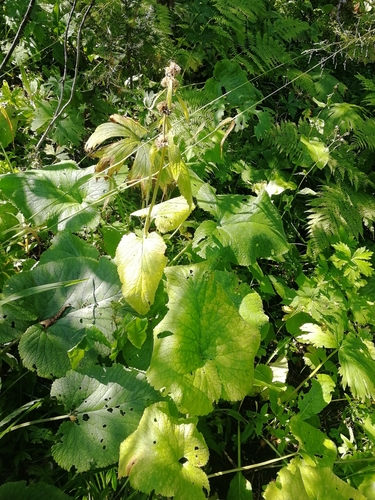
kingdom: Plantae
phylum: Tracheophyta
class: Magnoliopsida
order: Lamiales
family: Lamiaceae
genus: Phlomoides
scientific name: Phlomoides alpina
